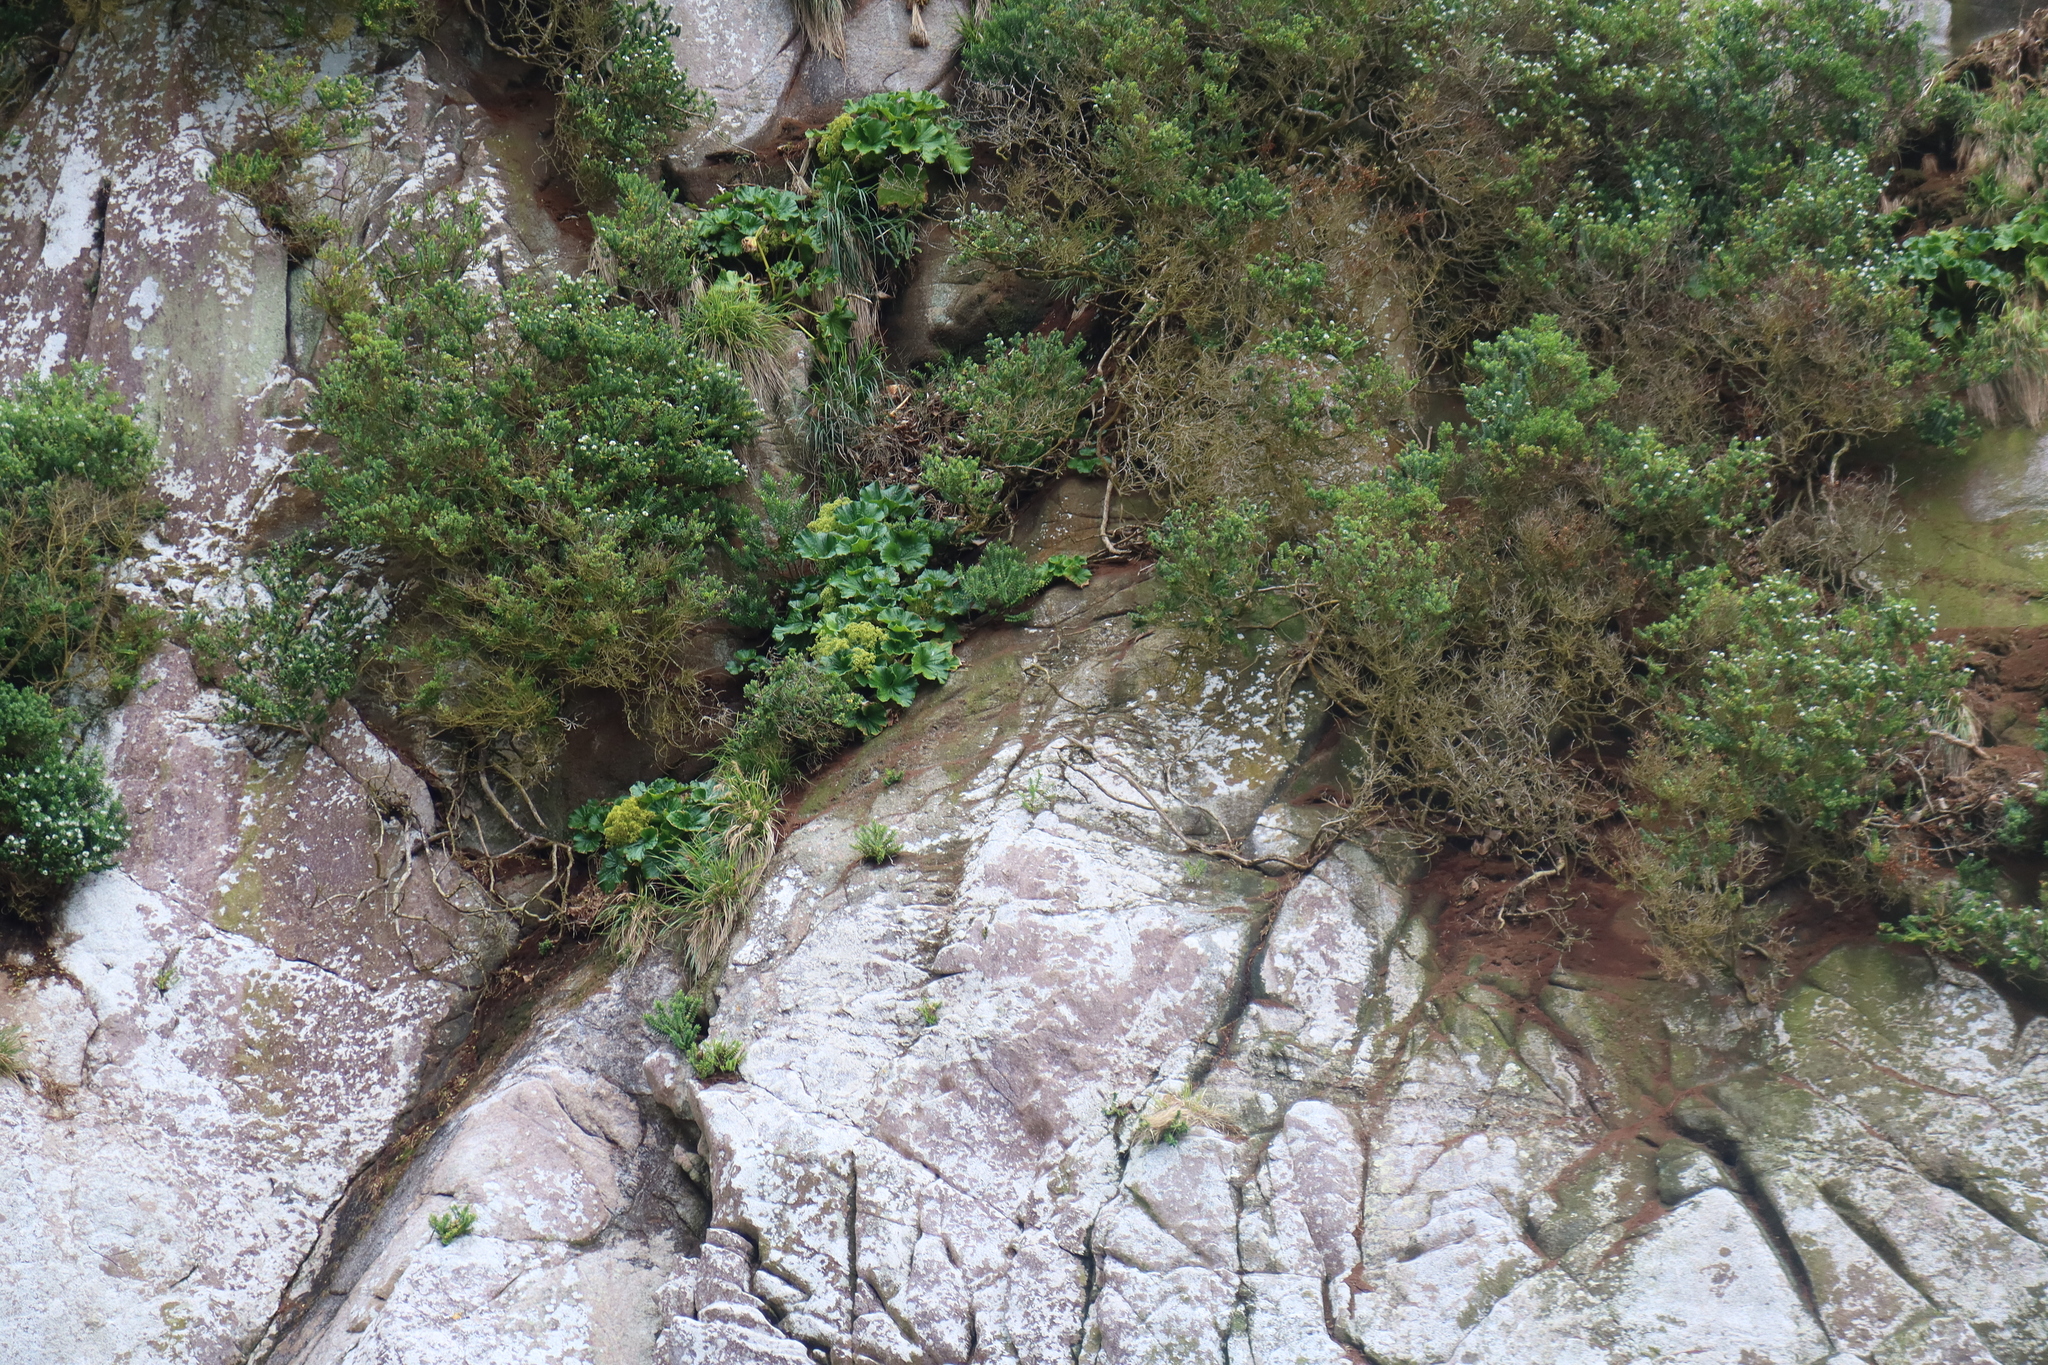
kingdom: Plantae
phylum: Tracheophyta
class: Magnoliopsida
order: Apiales
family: Apiaceae
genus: Azorella
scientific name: Azorella robusta
